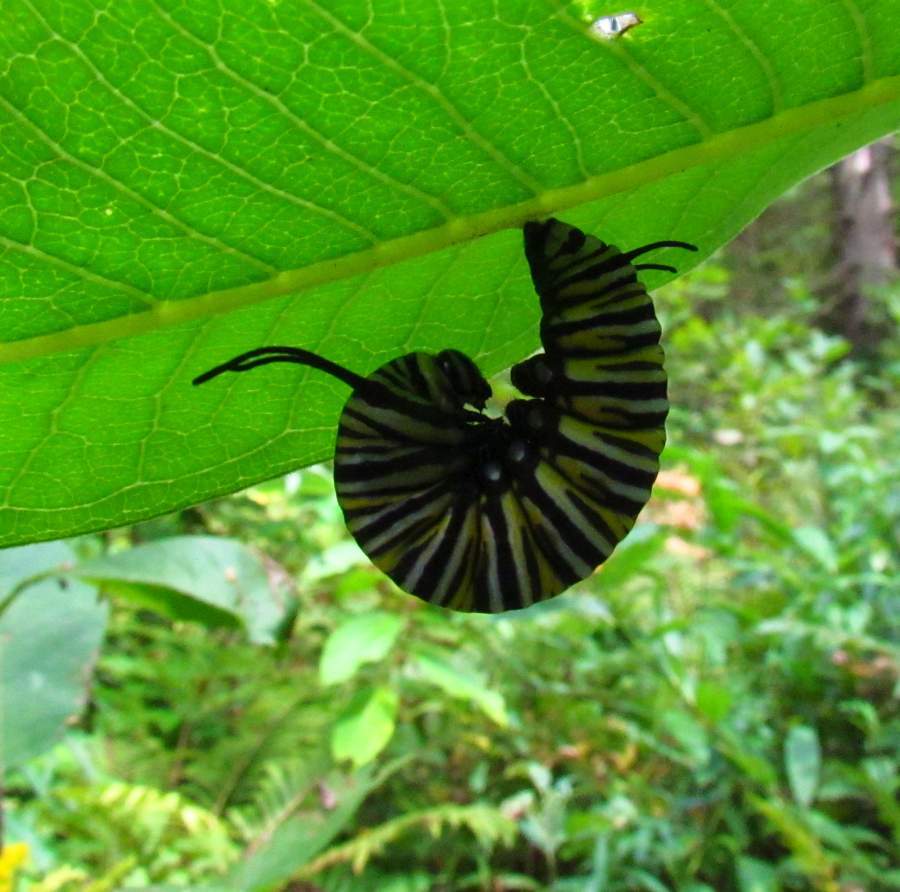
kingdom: Animalia
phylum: Arthropoda
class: Insecta
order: Lepidoptera
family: Nymphalidae
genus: Danaus
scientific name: Danaus plexippus
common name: Monarch
